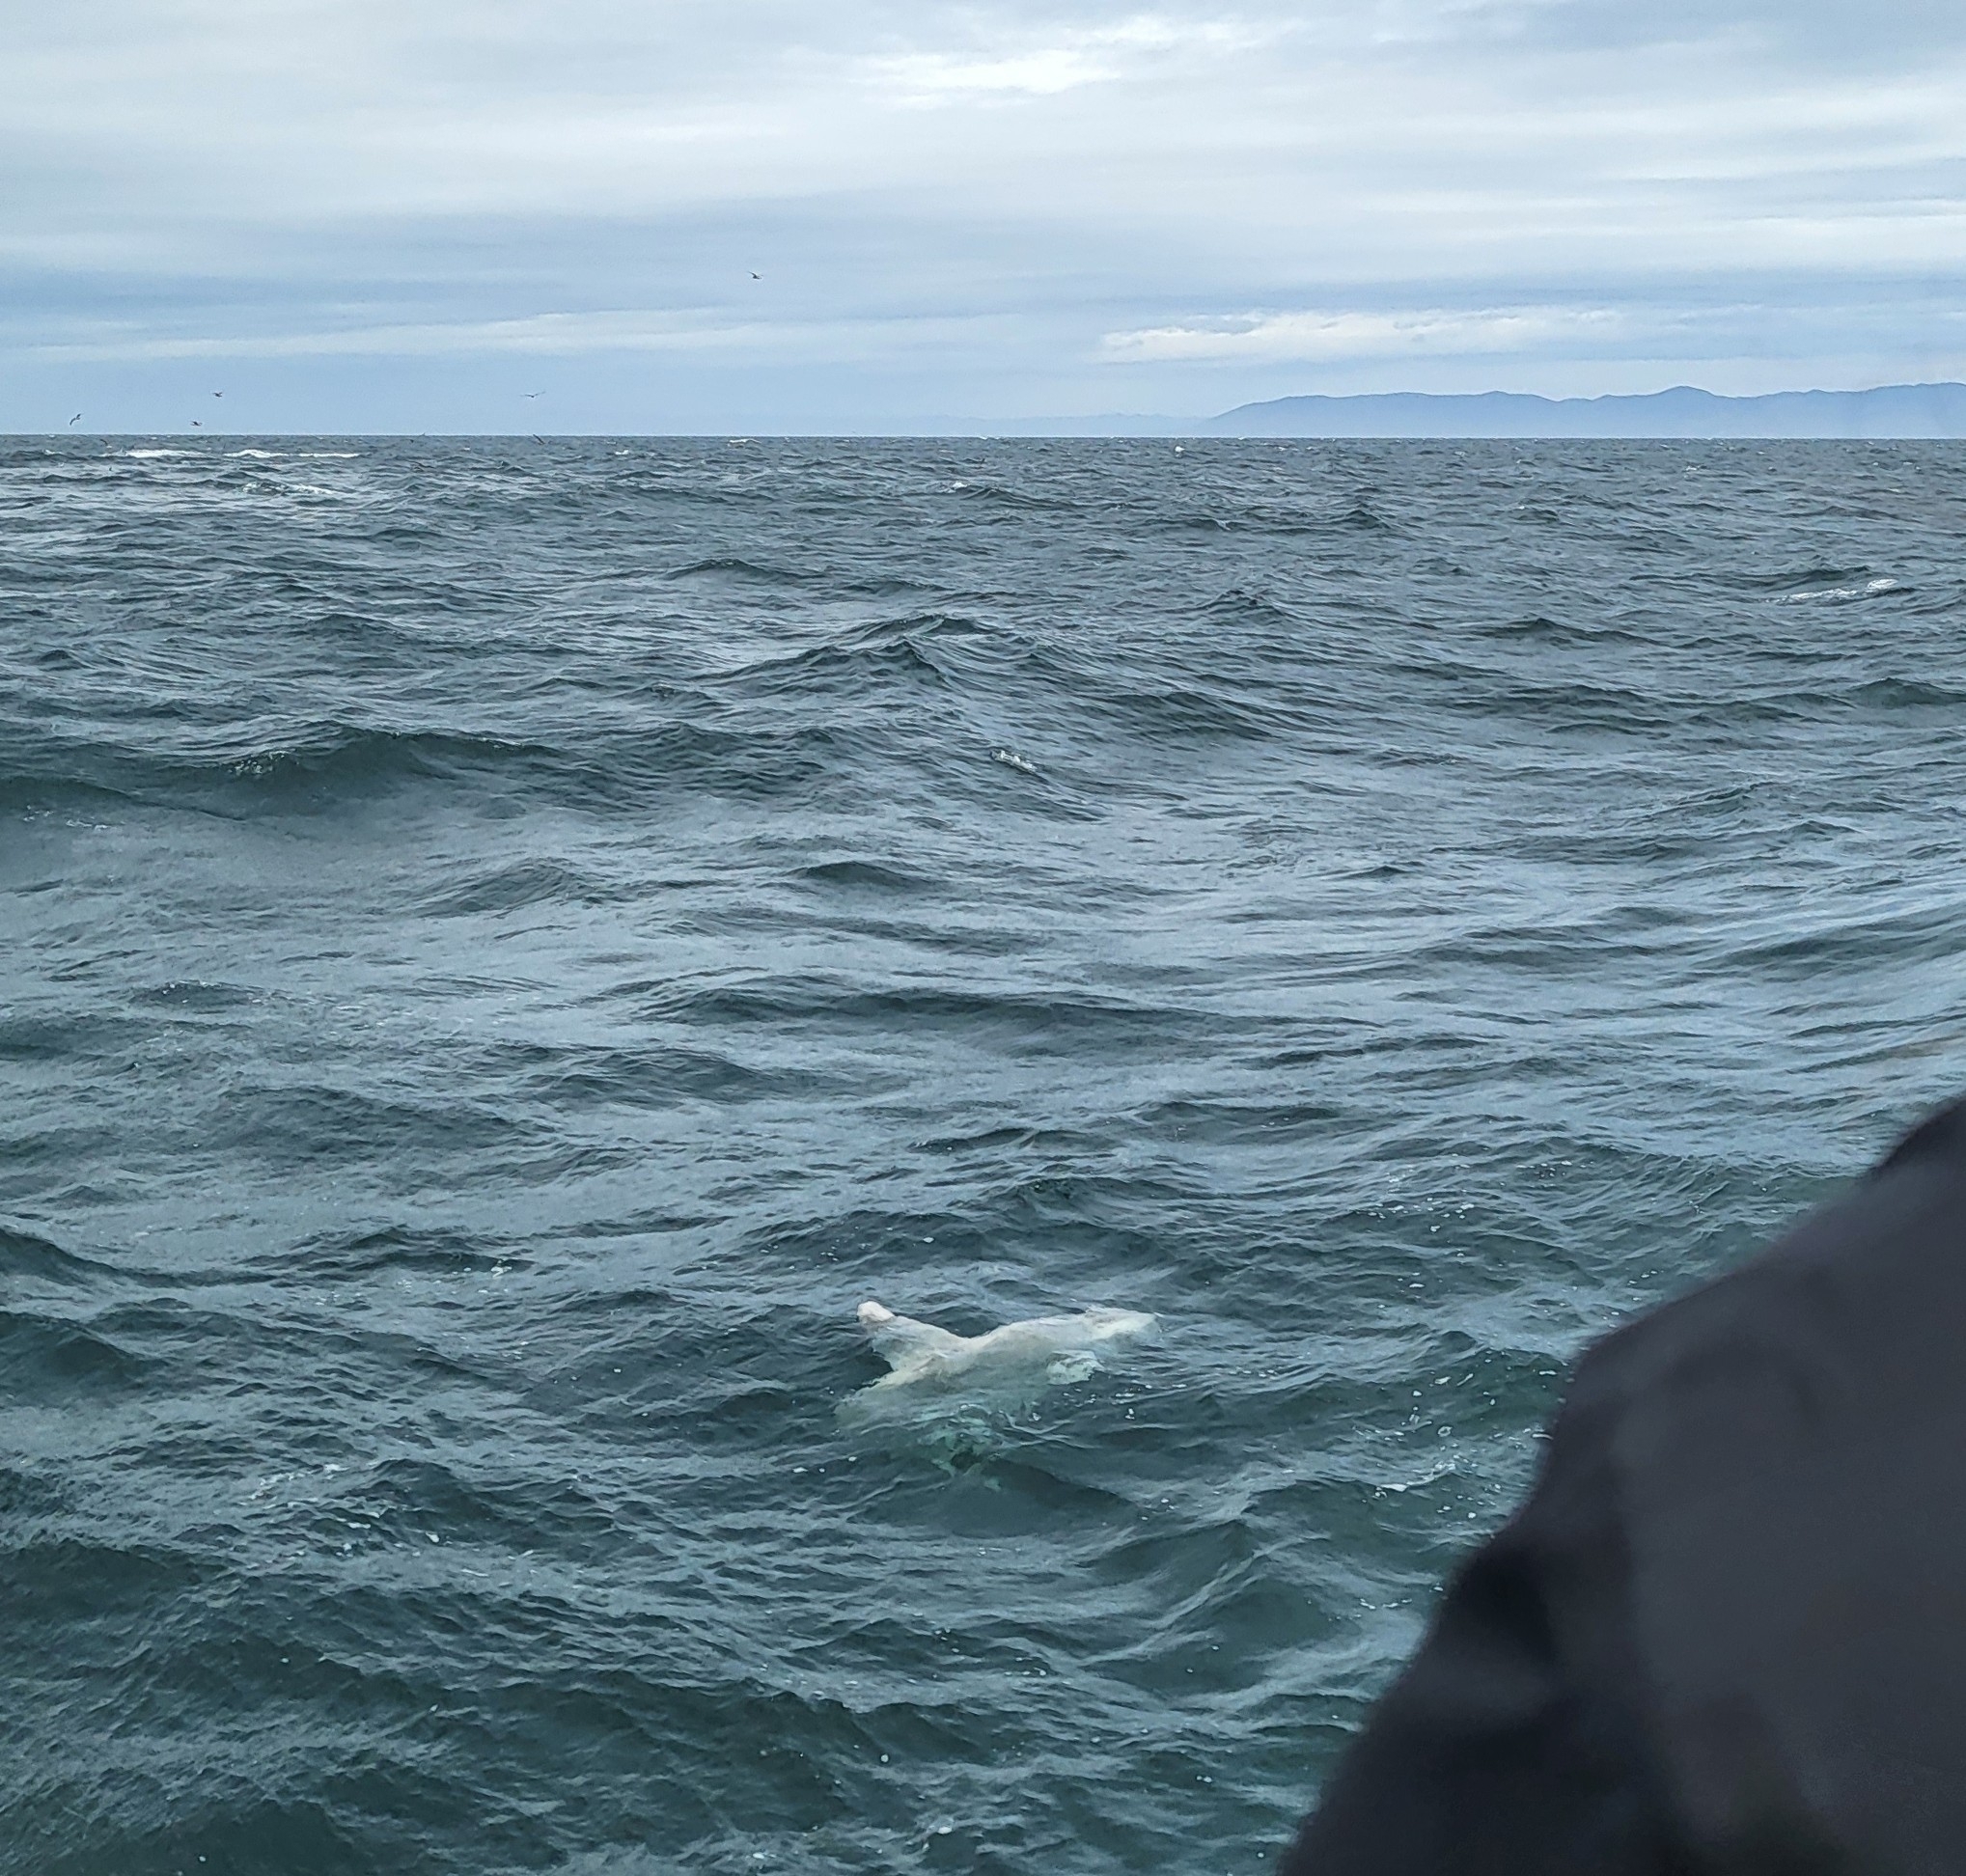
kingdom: Animalia
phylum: Chordata
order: Tetraodontiformes
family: Molidae
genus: Mola
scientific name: Mola mola
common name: Ocean sunfish
